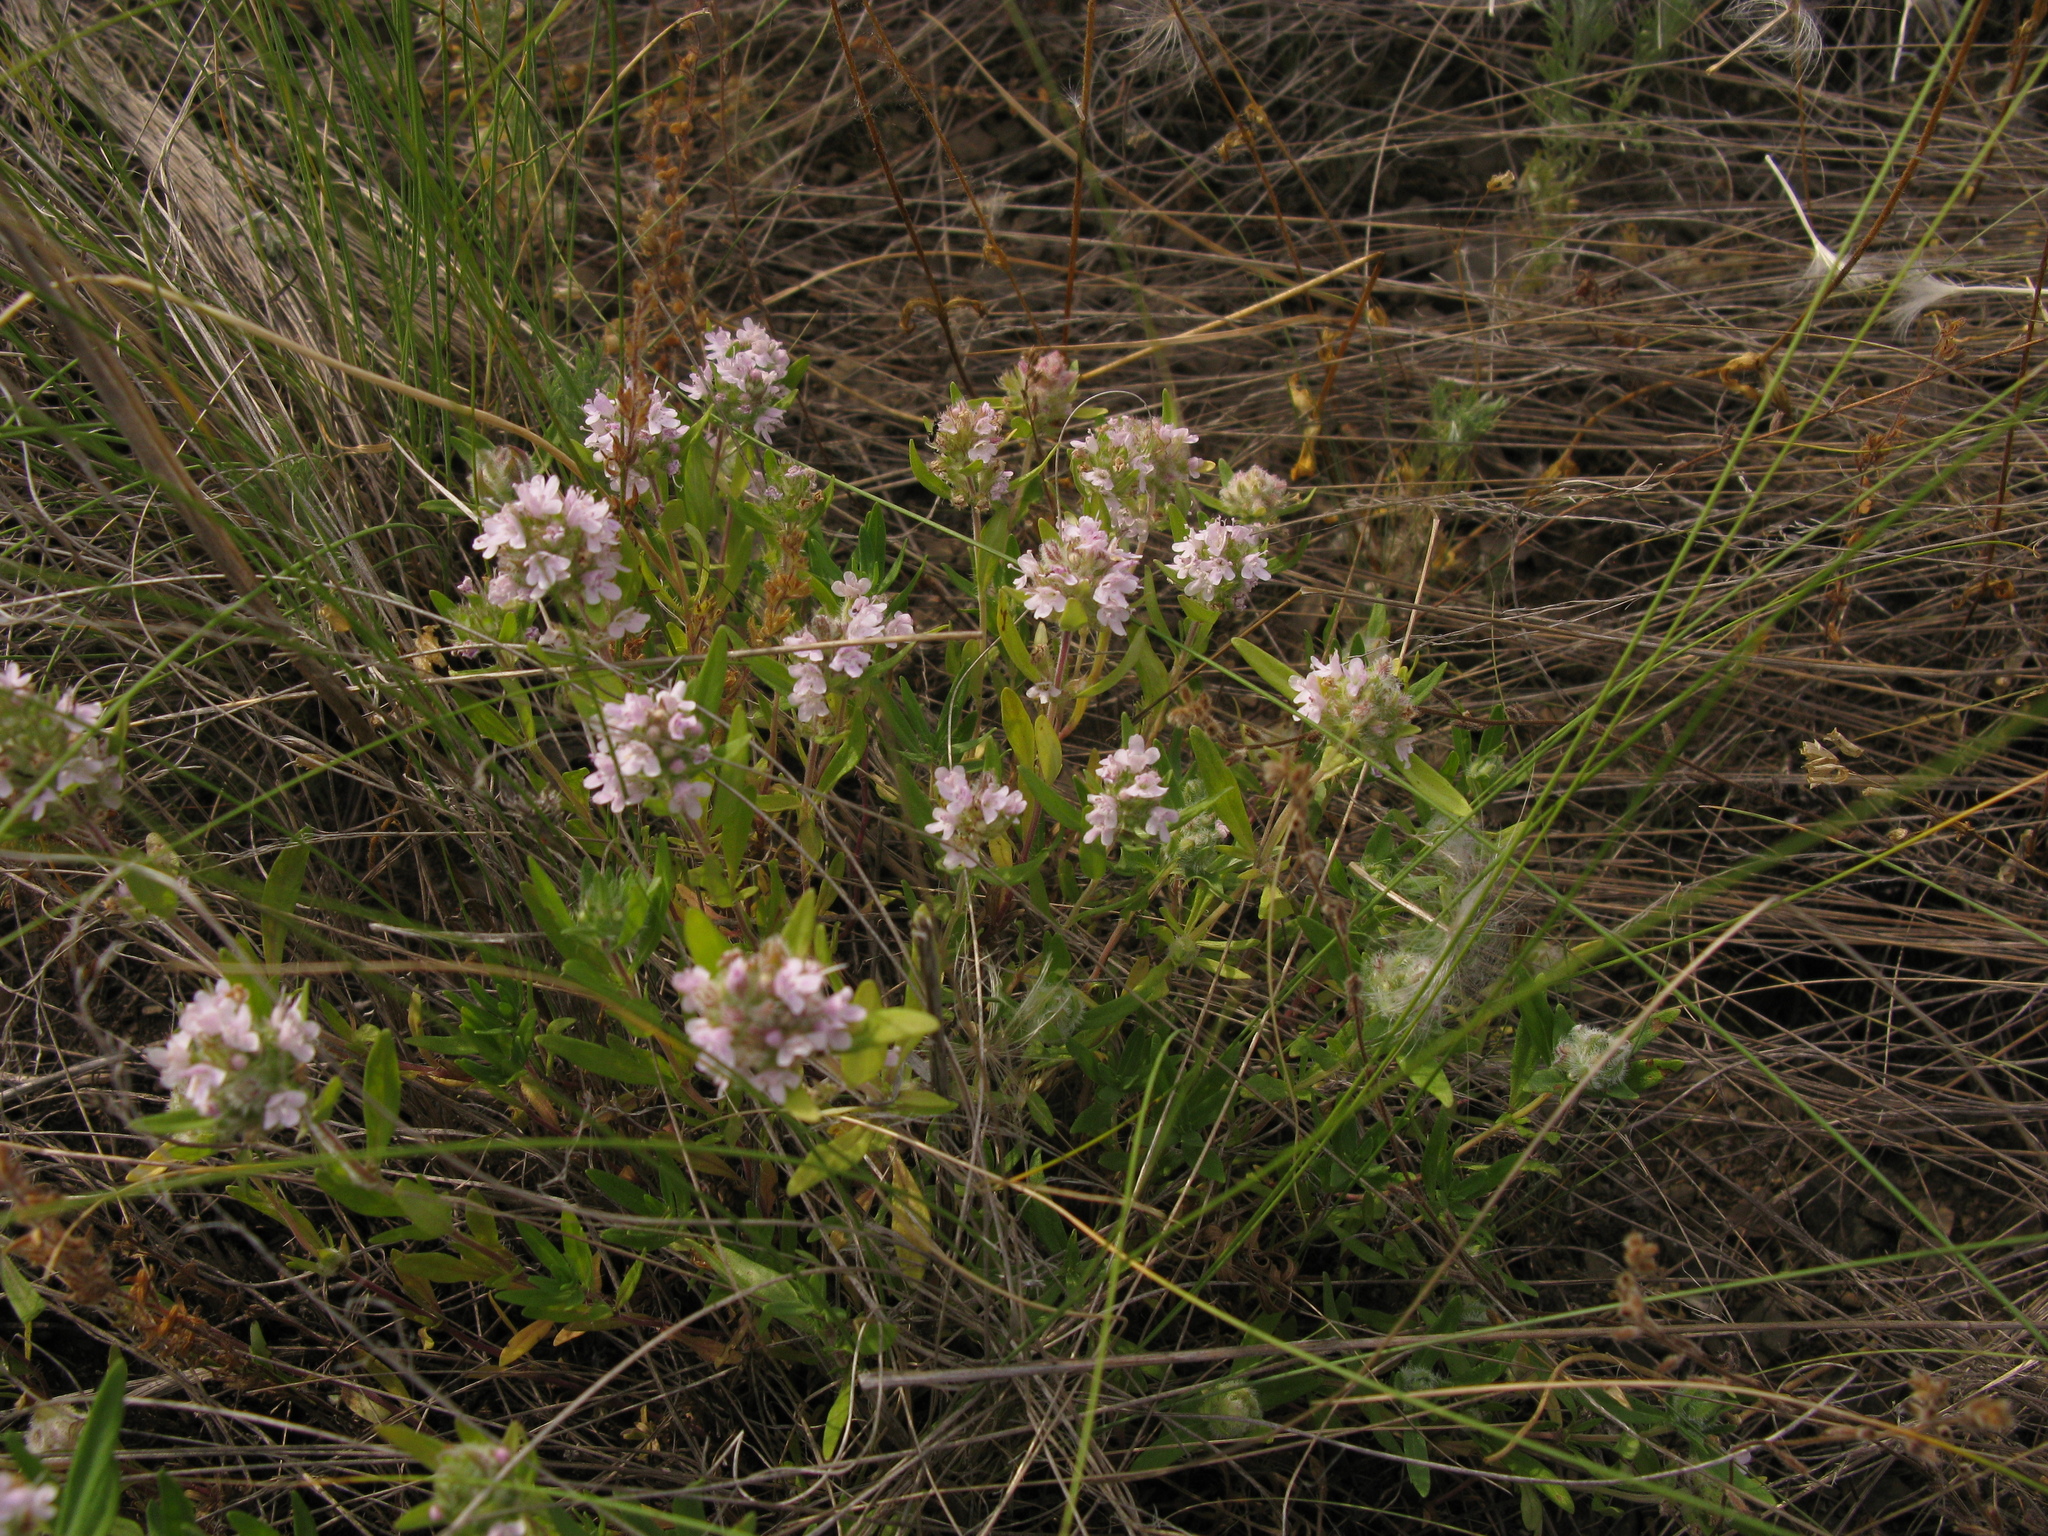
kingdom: Plantae
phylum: Tracheophyta
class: Magnoliopsida
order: Lamiales
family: Lamiaceae
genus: Thymus
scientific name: Thymus pannonicus
